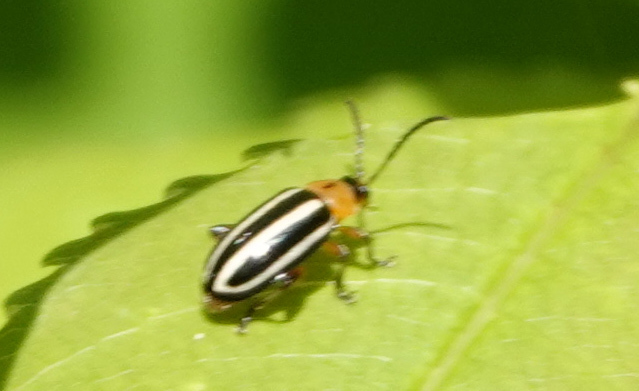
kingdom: Animalia
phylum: Arthropoda
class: Insecta
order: Coleoptera
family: Chrysomelidae
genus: Disonycha
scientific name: Disonycha glabrata
